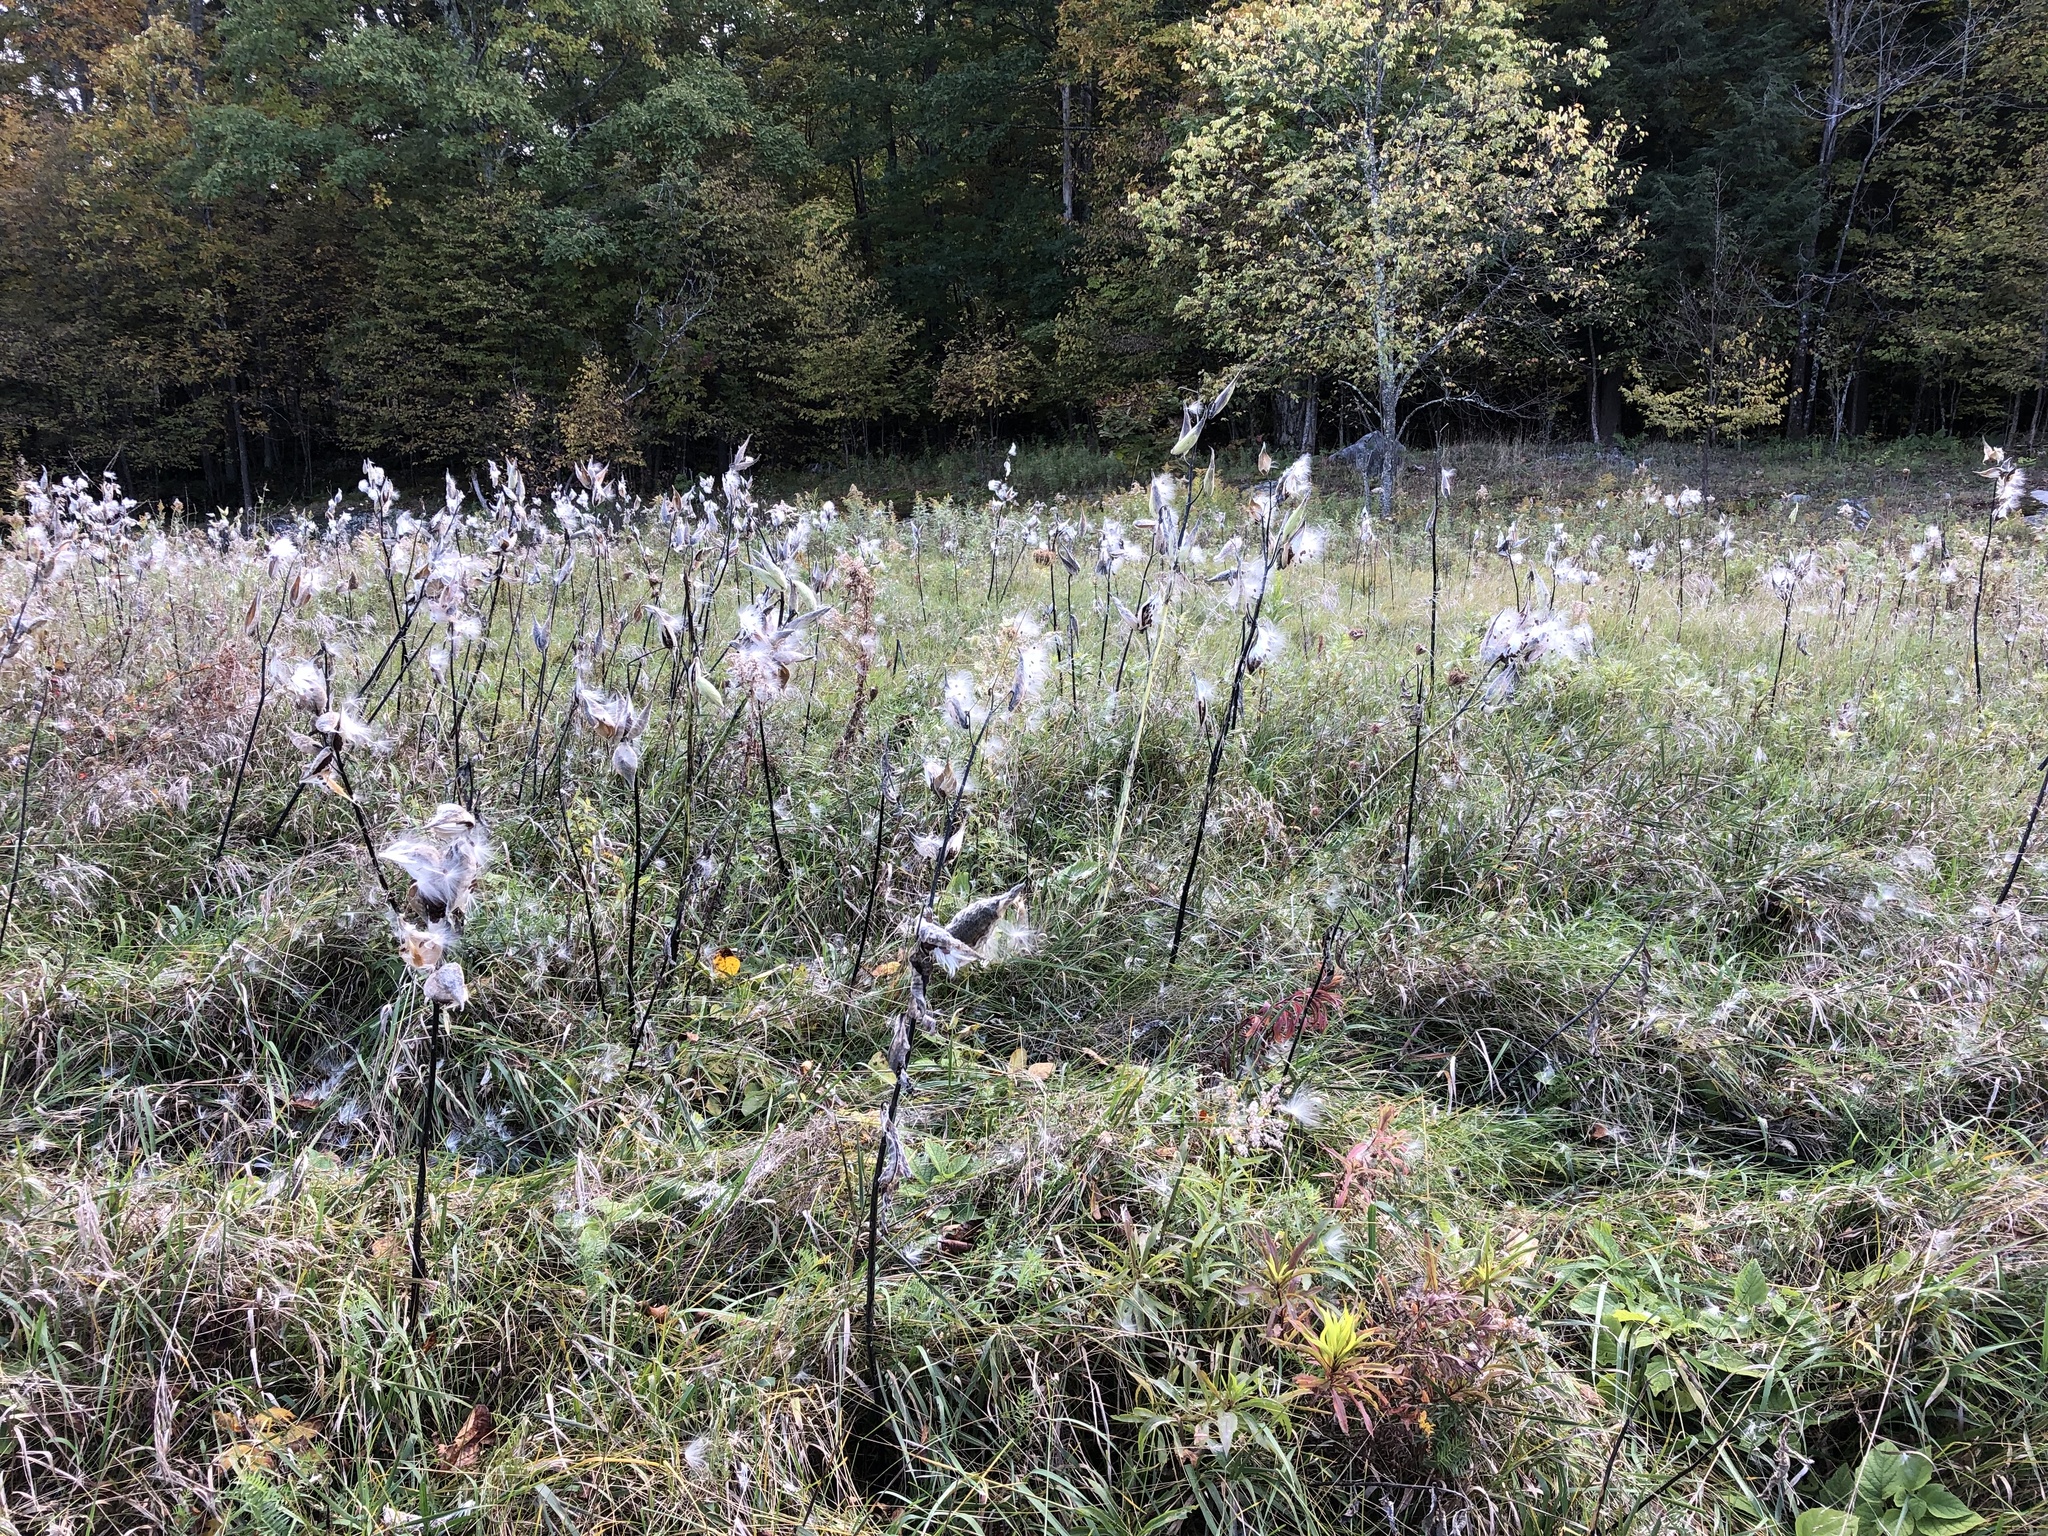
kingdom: Plantae
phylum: Tracheophyta
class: Magnoliopsida
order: Gentianales
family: Apocynaceae
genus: Asclepias
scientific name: Asclepias syriaca
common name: Common milkweed
